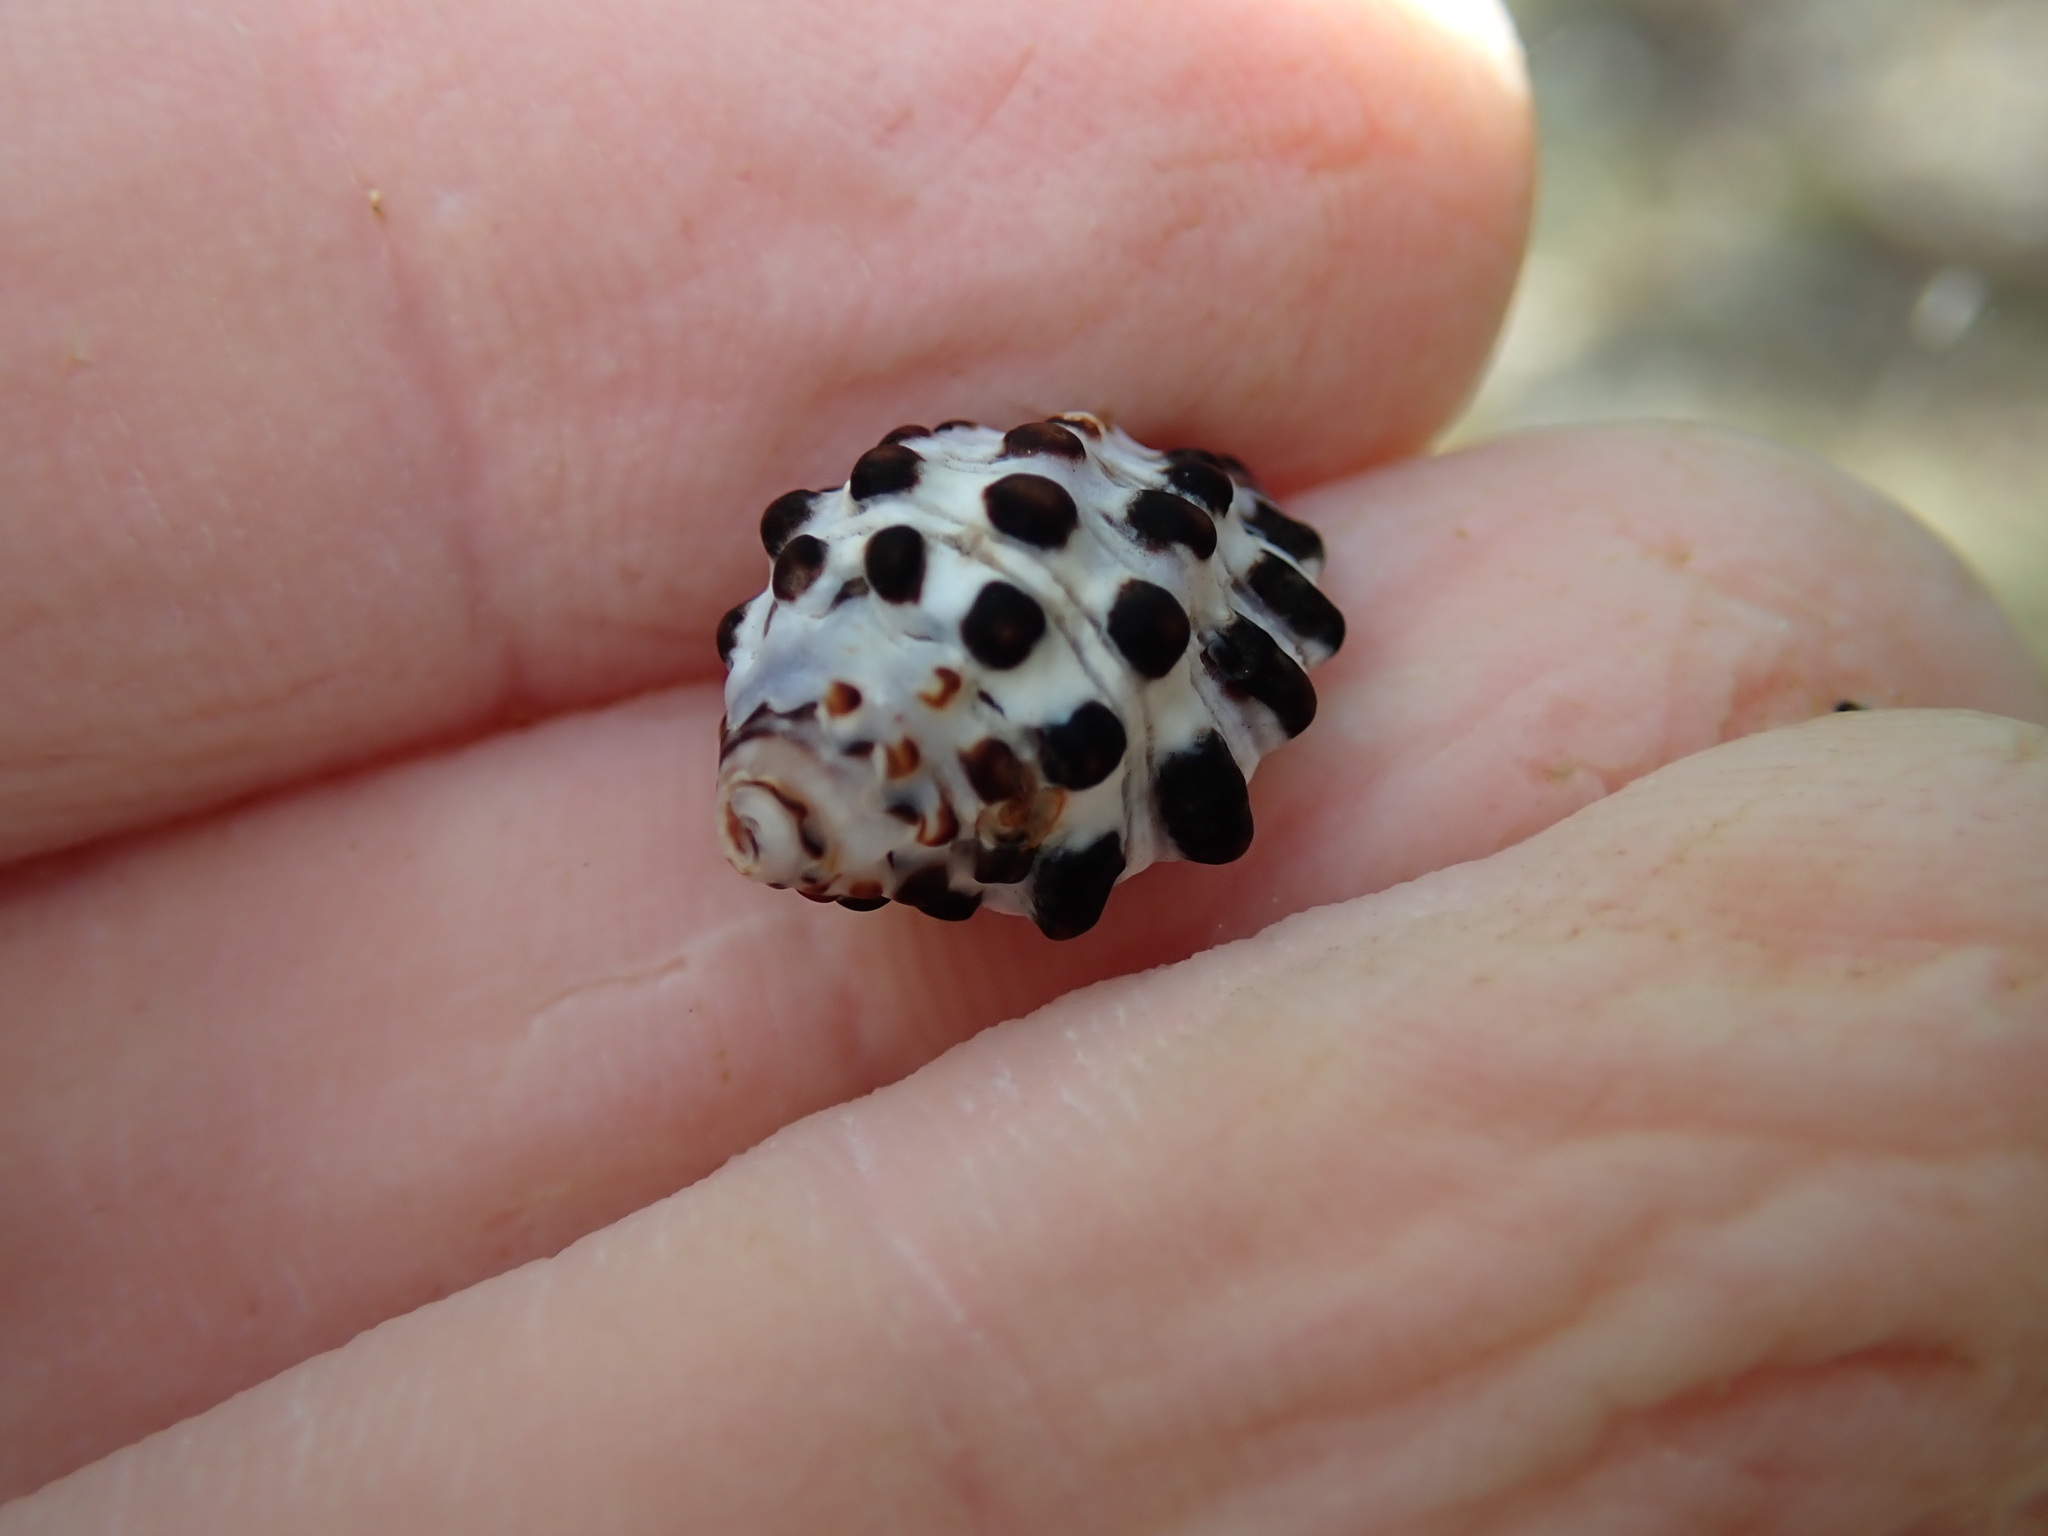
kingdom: Animalia
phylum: Mollusca
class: Gastropoda
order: Neogastropoda
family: Muricidae
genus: Morula
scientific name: Morula uva
